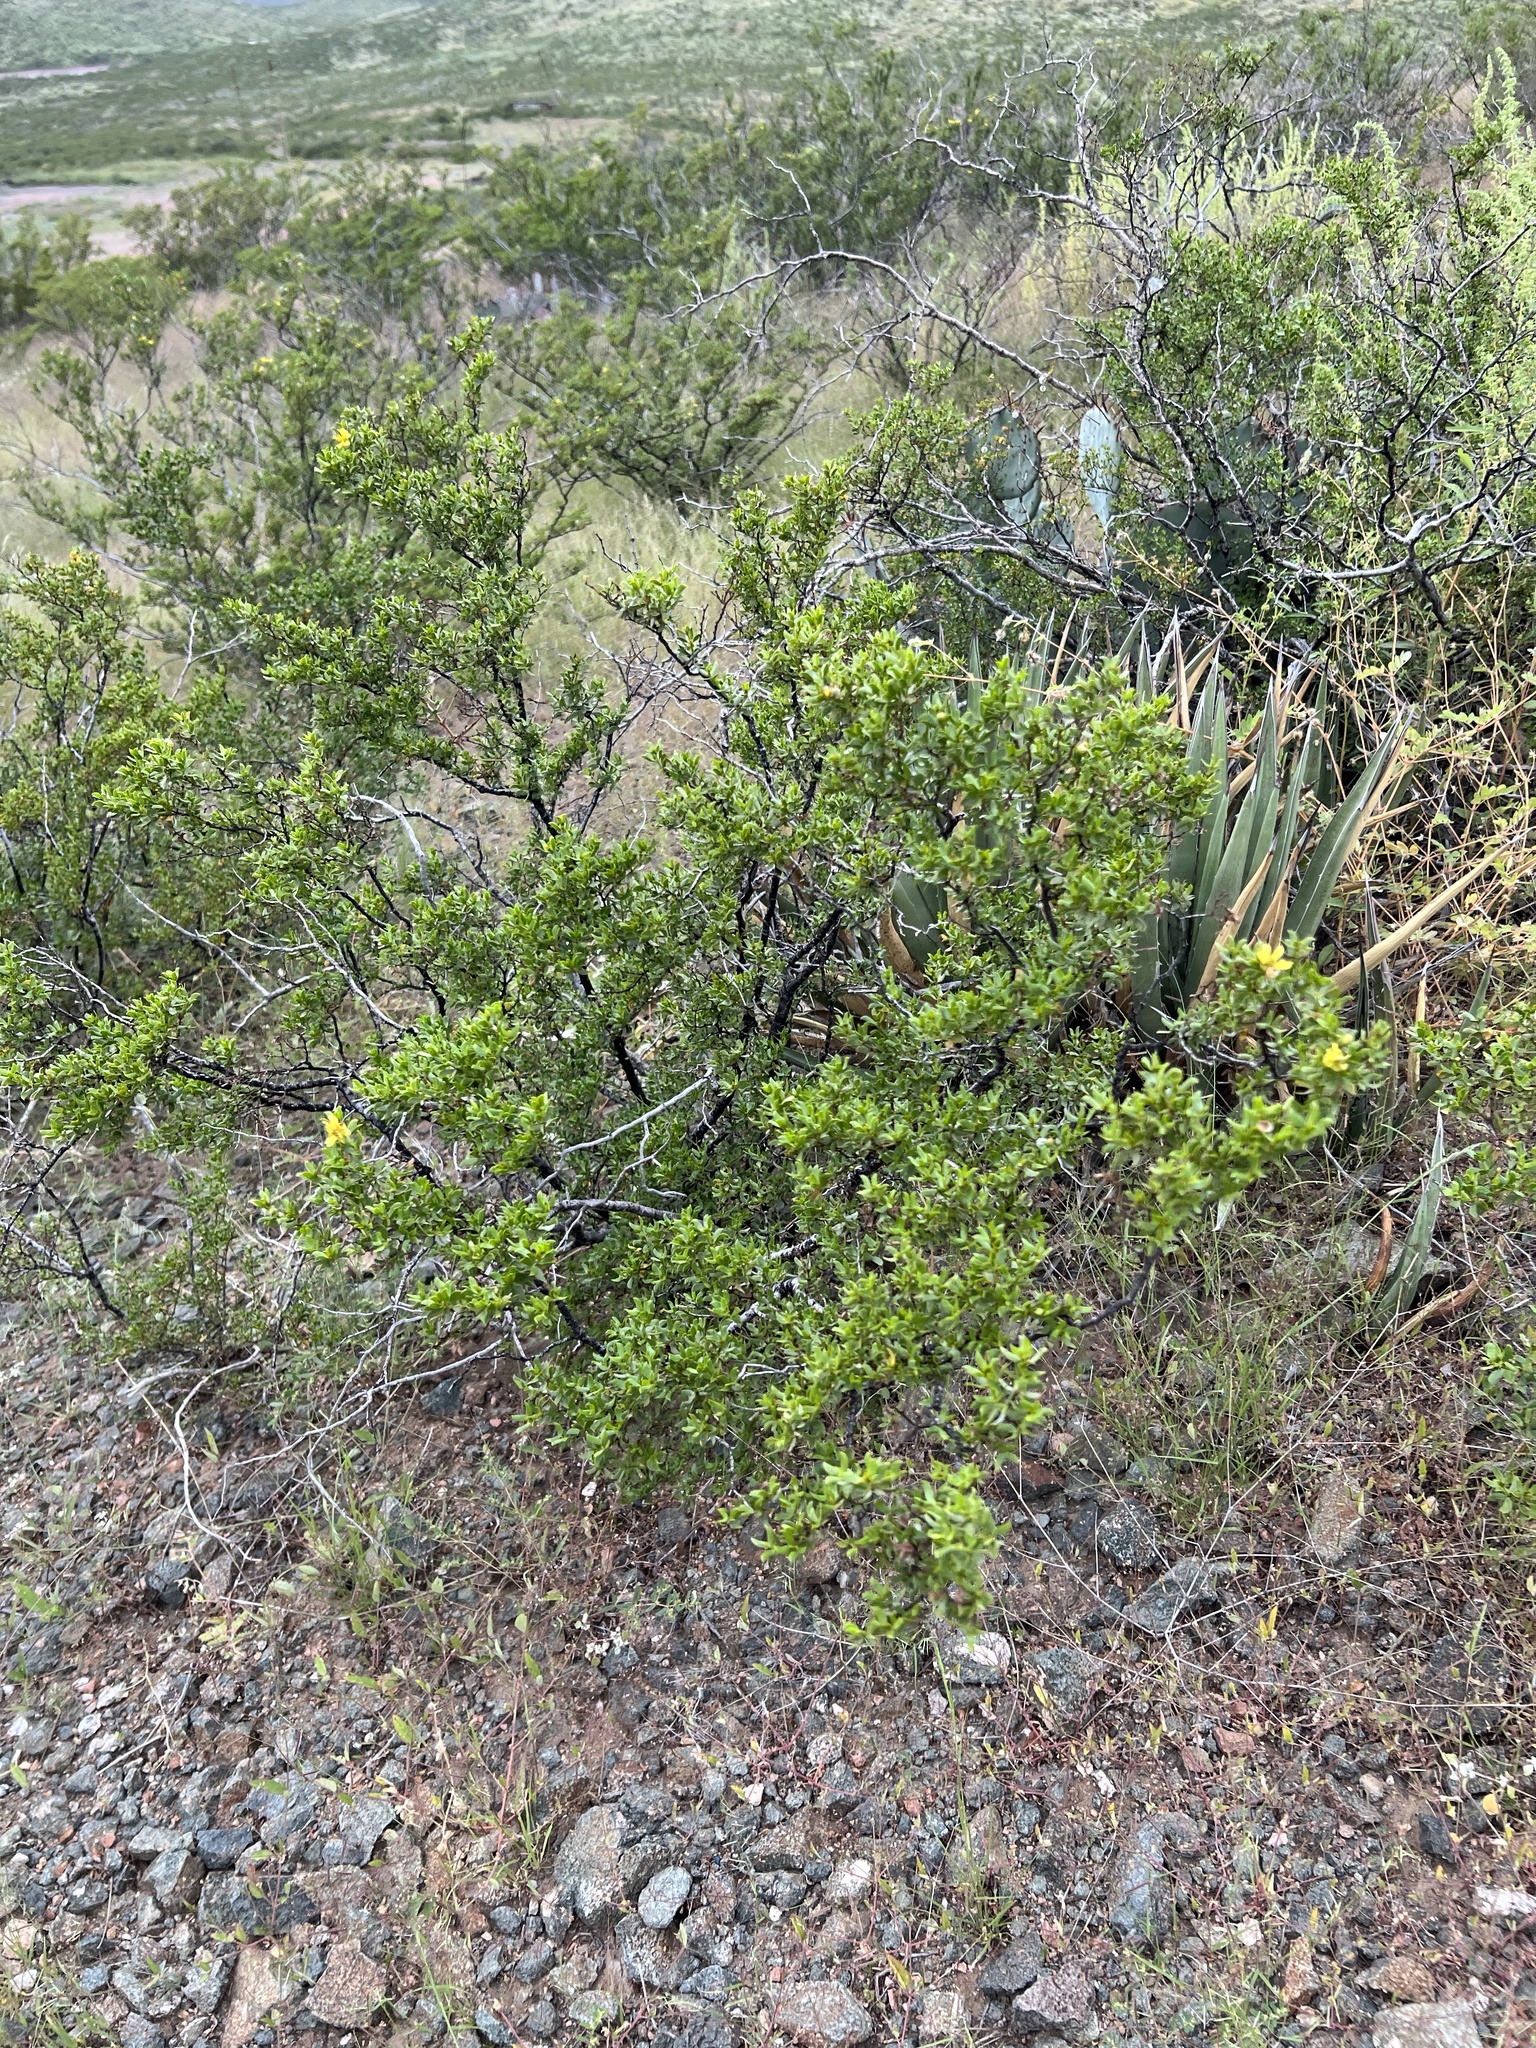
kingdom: Plantae
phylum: Tracheophyta
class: Magnoliopsida
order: Zygophyllales
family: Zygophyllaceae
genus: Larrea
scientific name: Larrea tridentata
